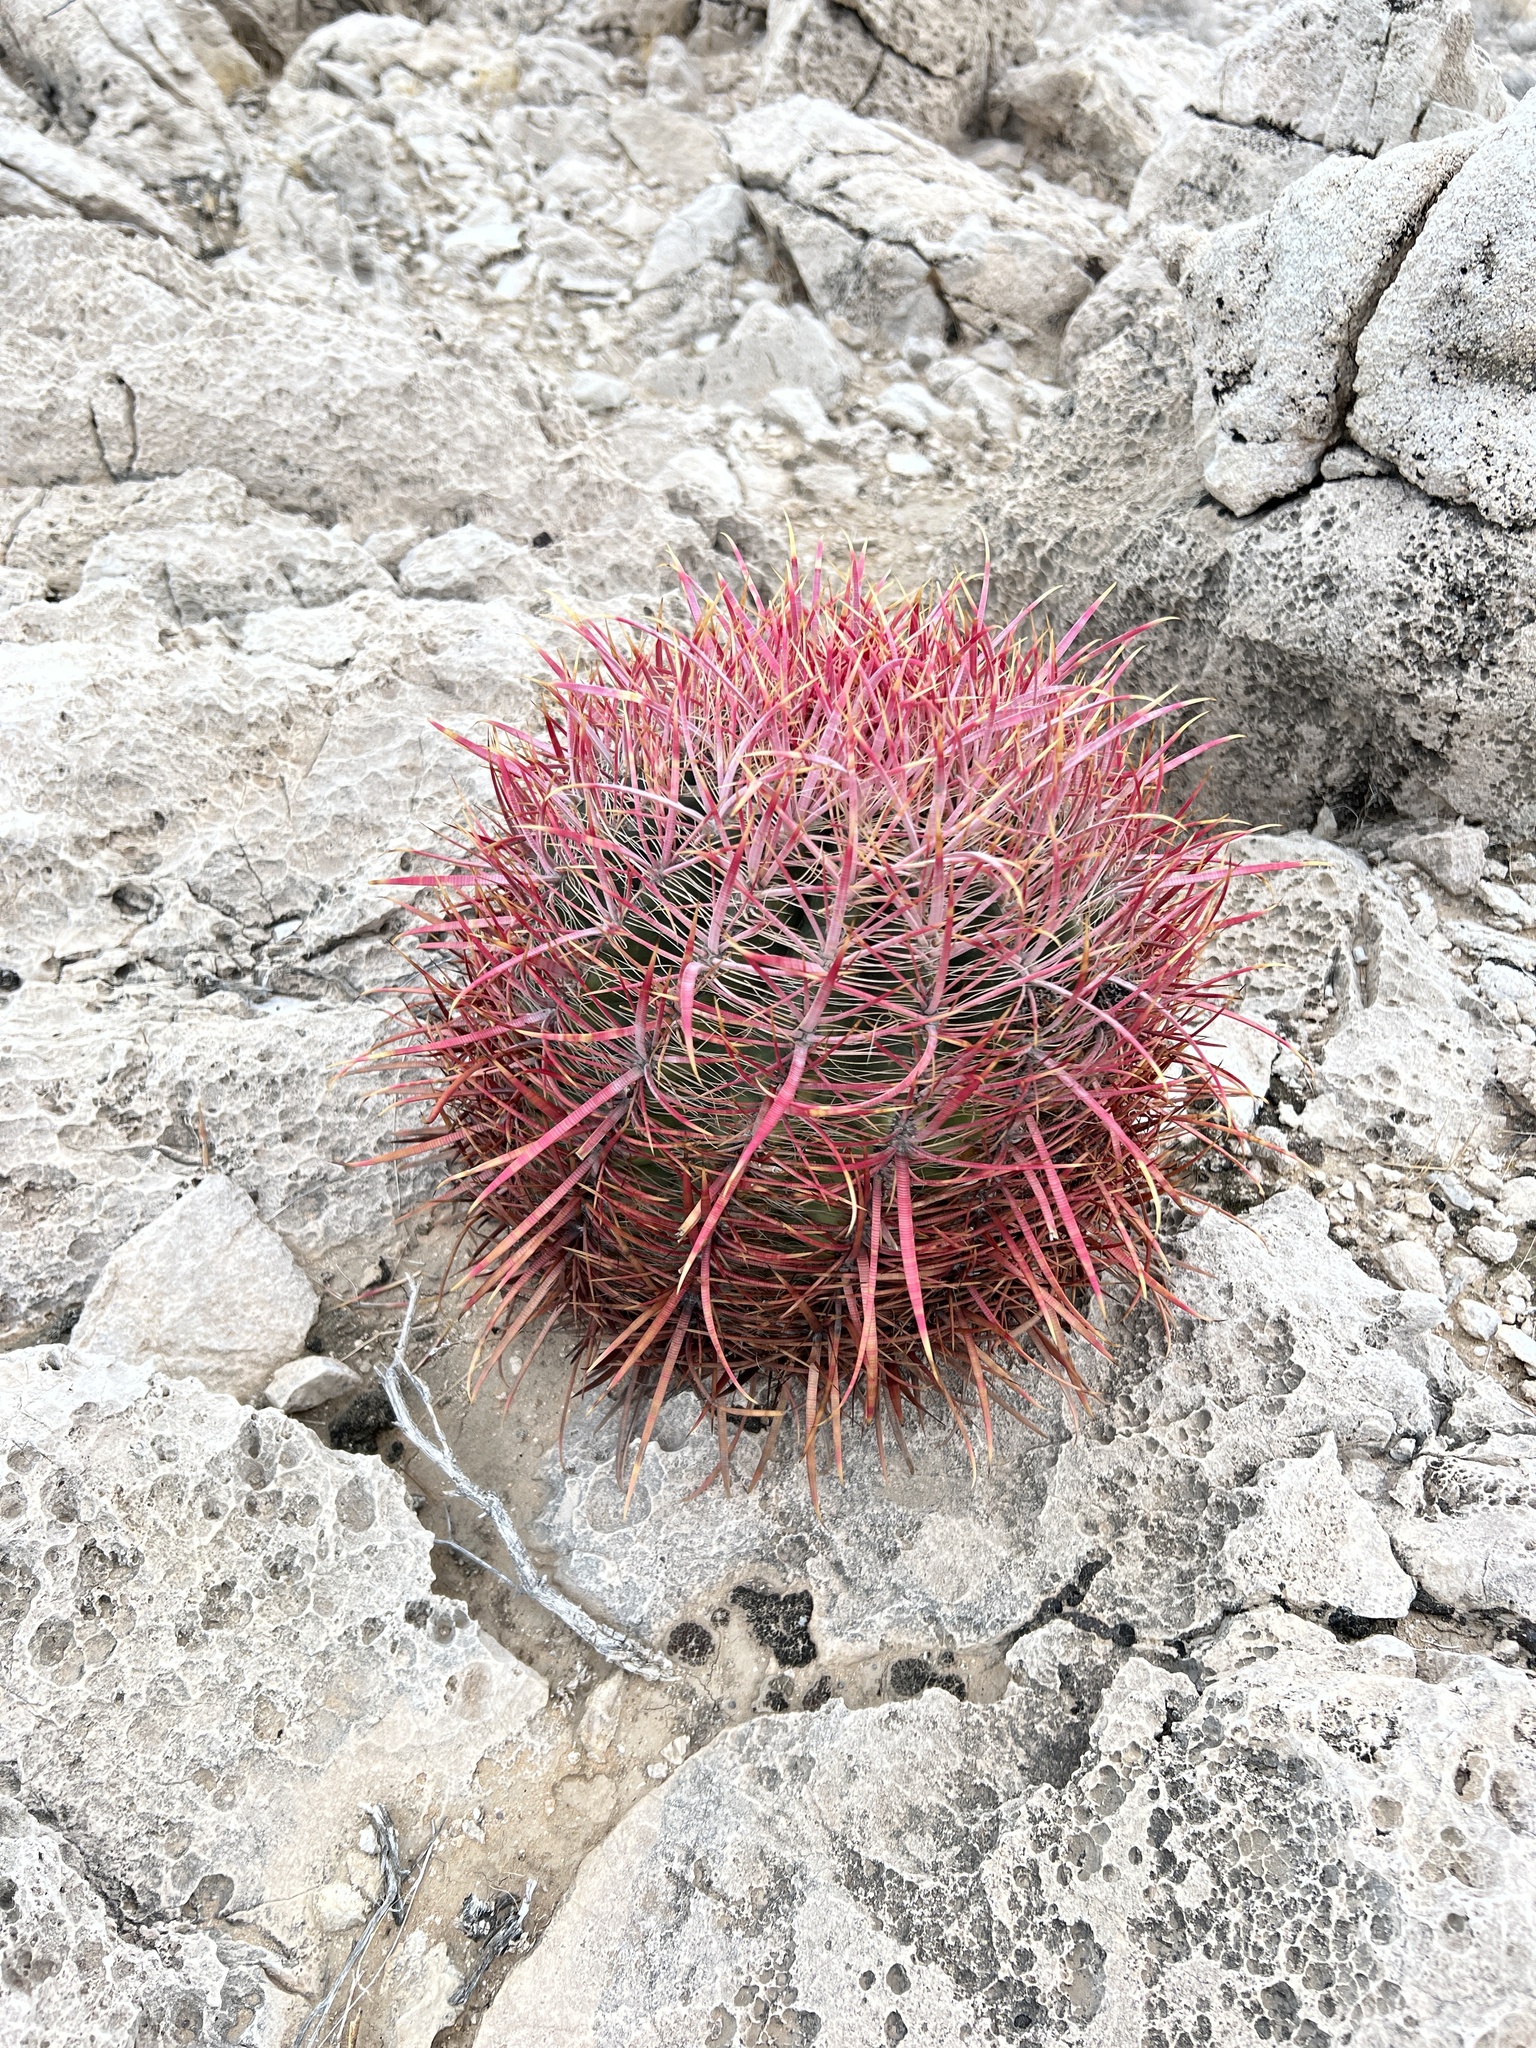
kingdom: Plantae
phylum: Tracheophyta
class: Magnoliopsida
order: Caryophyllales
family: Cactaceae
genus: Ferocactus
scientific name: Ferocactus cylindraceus
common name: California barrel cactus
